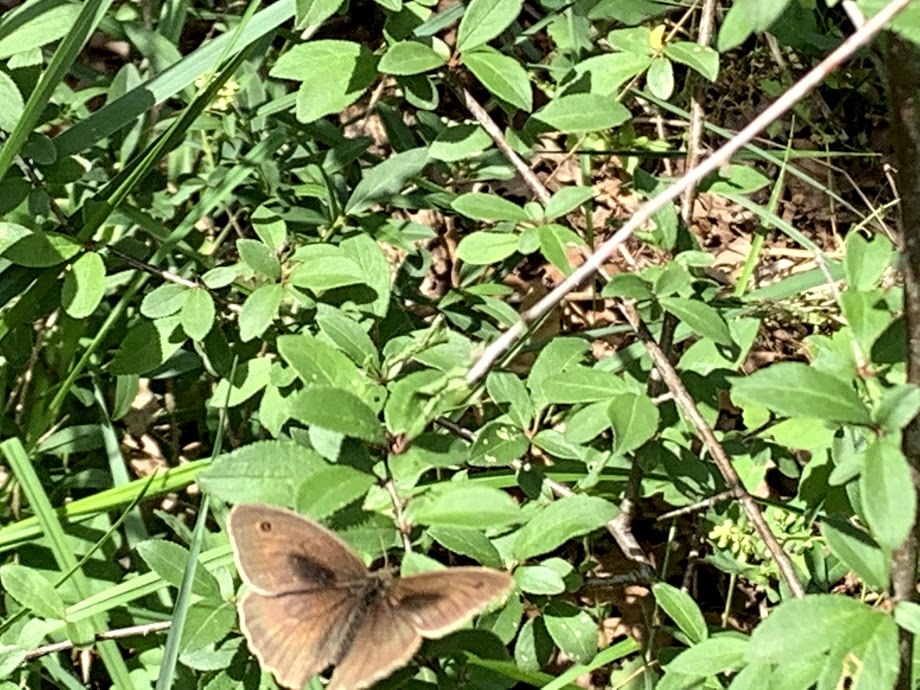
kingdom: Animalia
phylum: Arthropoda
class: Insecta
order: Lepidoptera
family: Nymphalidae
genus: Maniola
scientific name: Maniola jurtina
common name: Meadow brown
